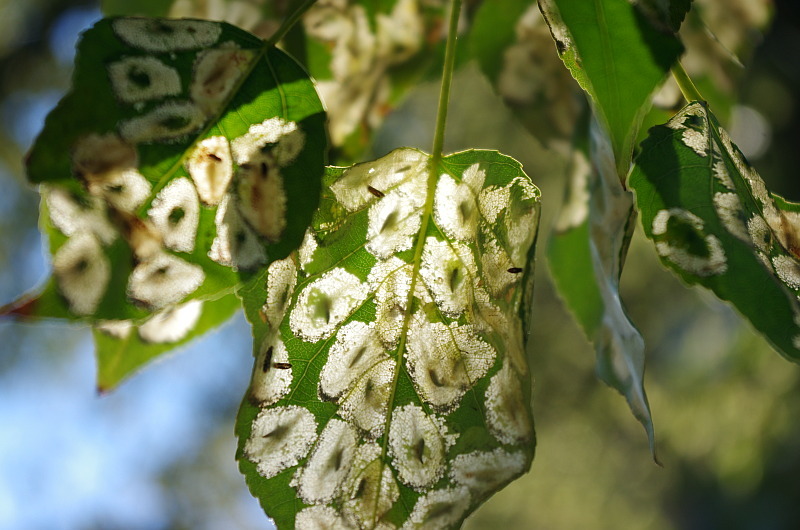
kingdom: Animalia
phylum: Arthropoda
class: Insecta
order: Lepidoptera
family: Gracillariidae
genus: Phyllonorycter
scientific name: Phyllonorycter populifoliella
